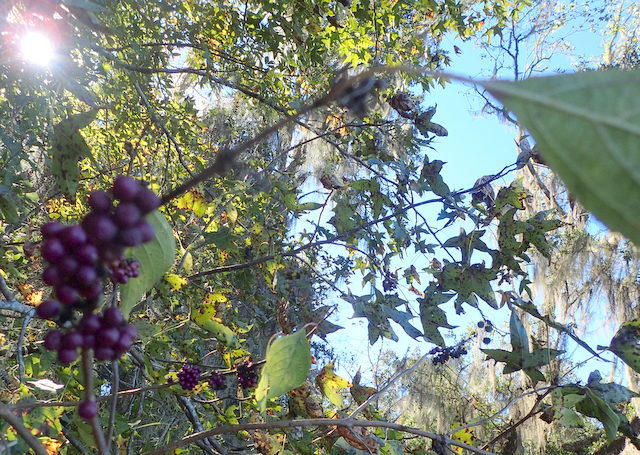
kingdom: Plantae
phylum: Tracheophyta
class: Magnoliopsida
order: Lamiales
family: Lamiaceae
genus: Callicarpa
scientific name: Callicarpa americana
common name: American beautyberry
